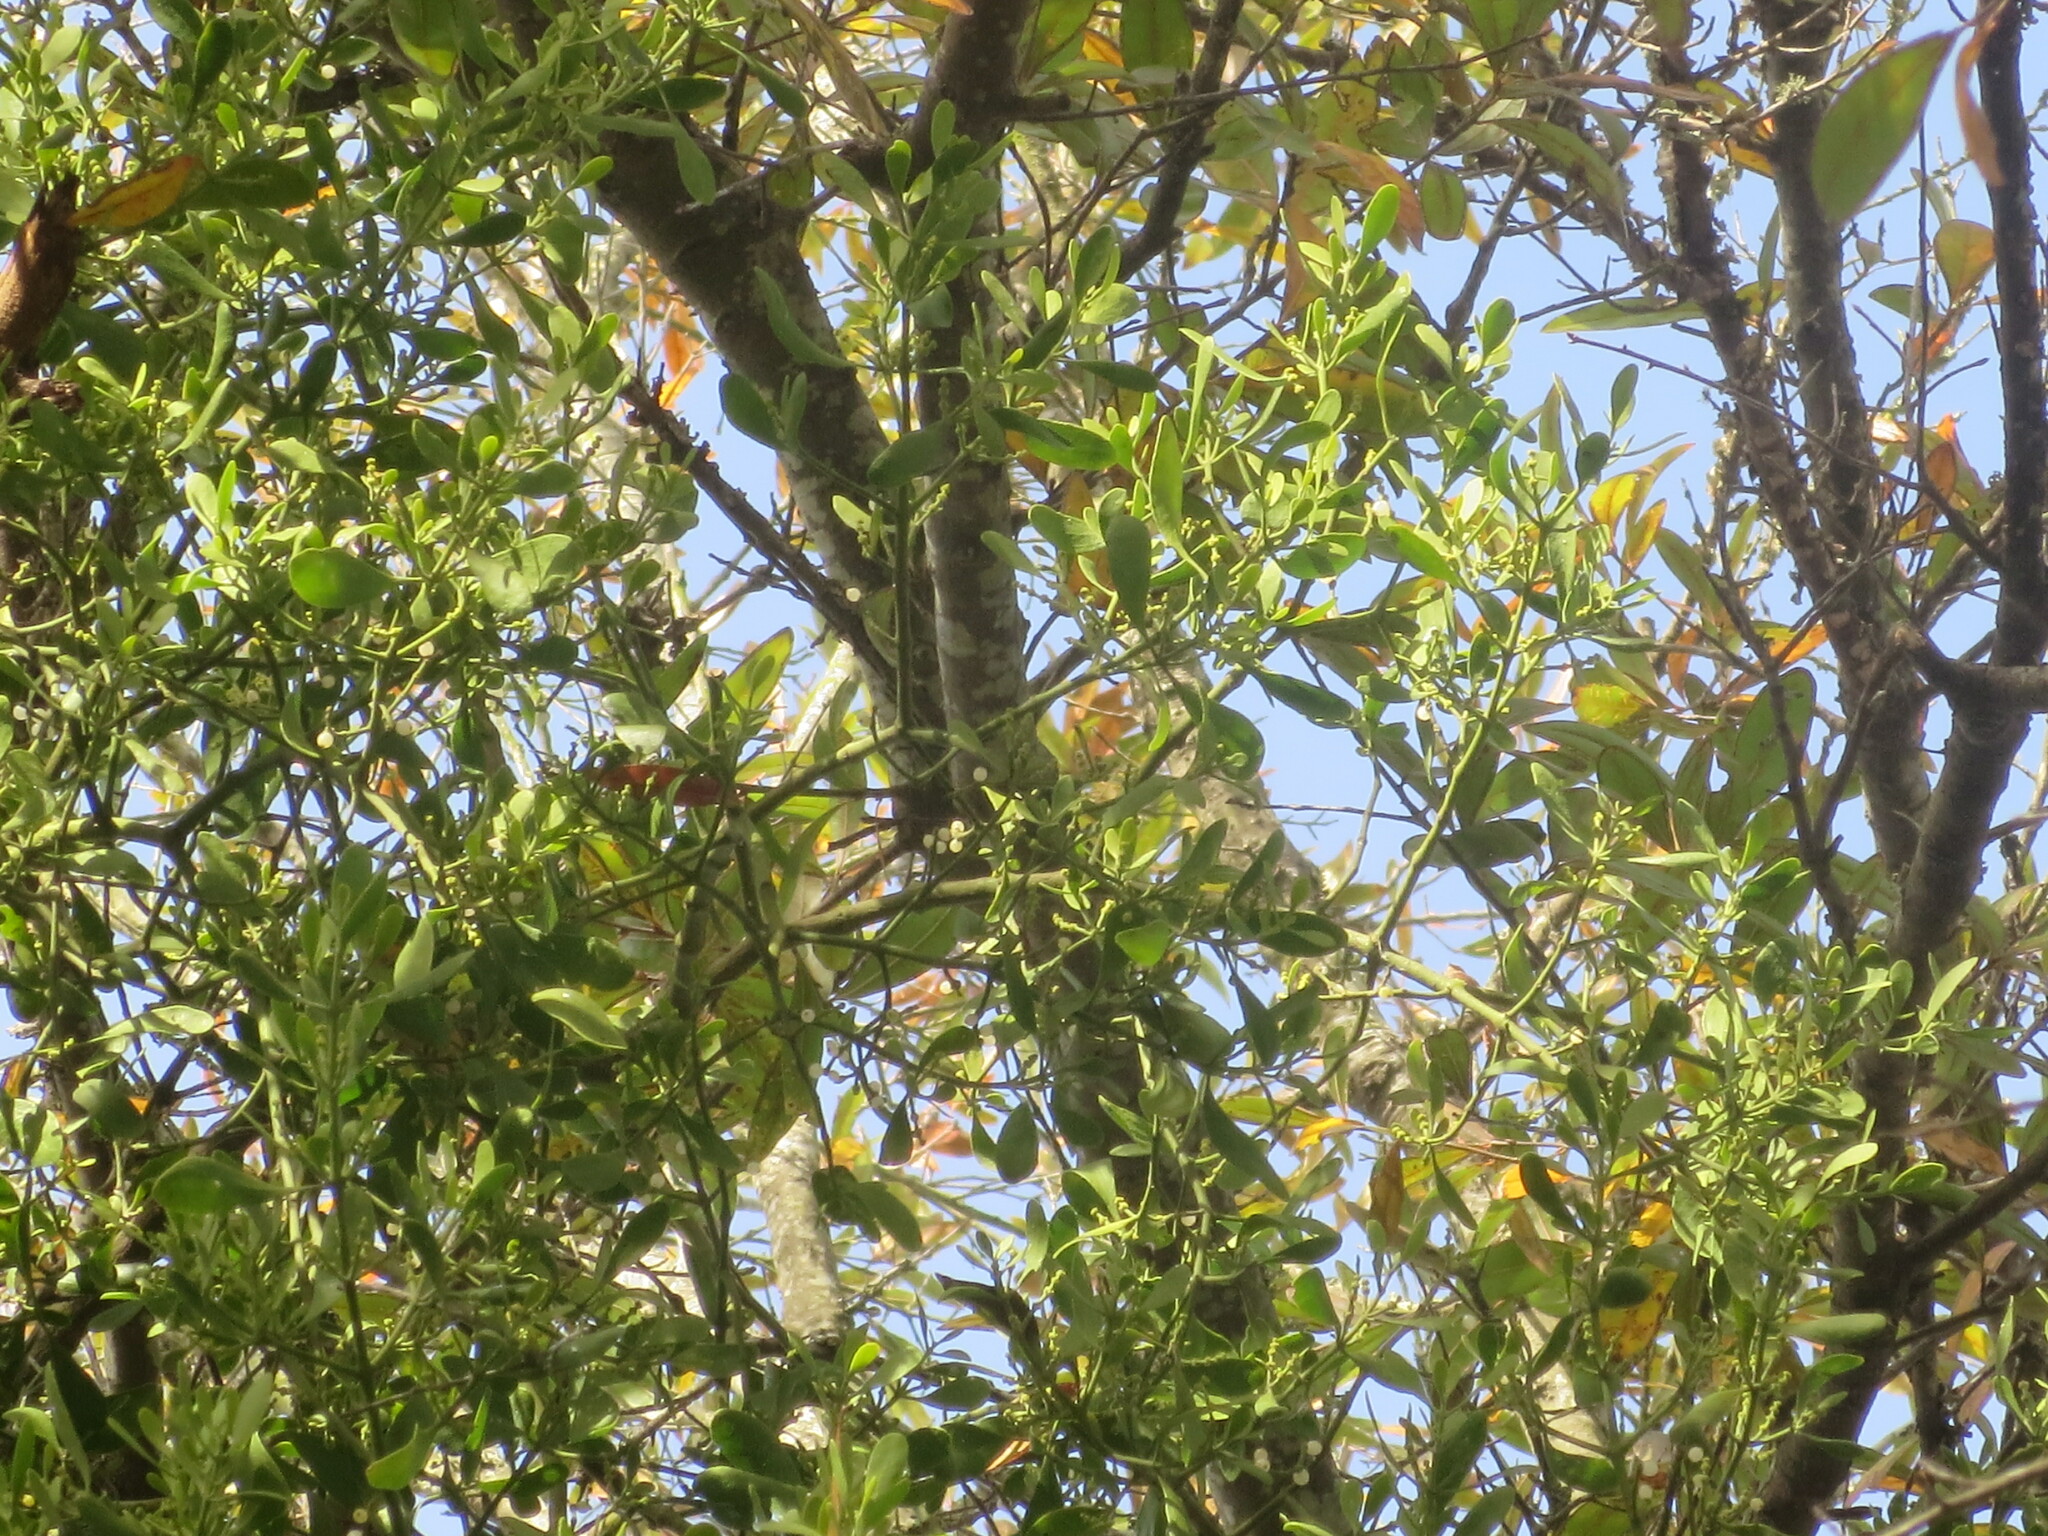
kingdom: Plantae
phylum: Tracheophyta
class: Magnoliopsida
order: Santalales
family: Viscaceae
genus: Phoradendron
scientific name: Phoradendron leucarpum
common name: Pacific mistletoe
